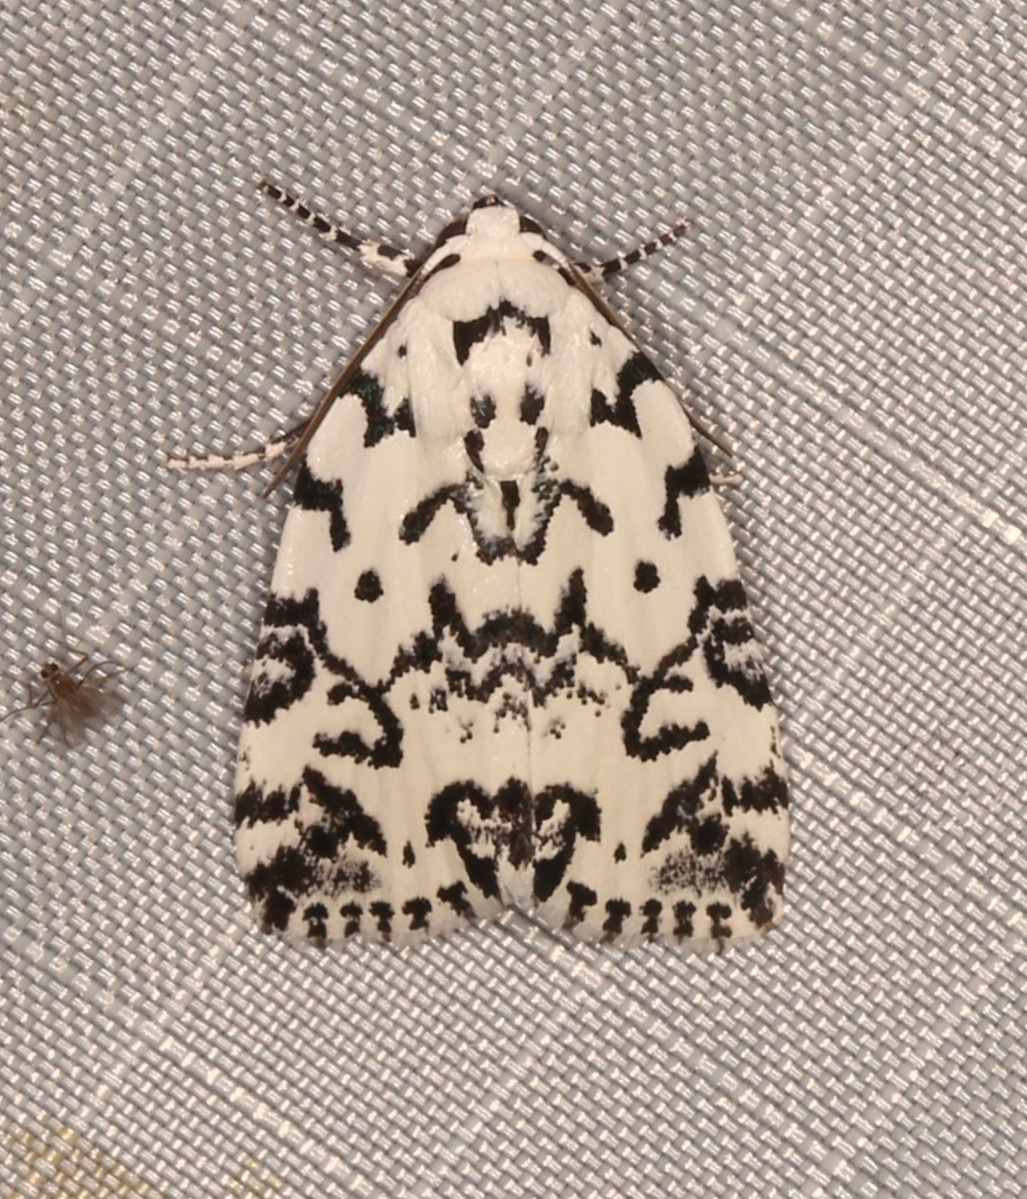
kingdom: Animalia
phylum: Arthropoda
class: Insecta
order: Lepidoptera
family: Noctuidae
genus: Polygrammate
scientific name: Polygrammate hebraeicum
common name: Hebrew moth
